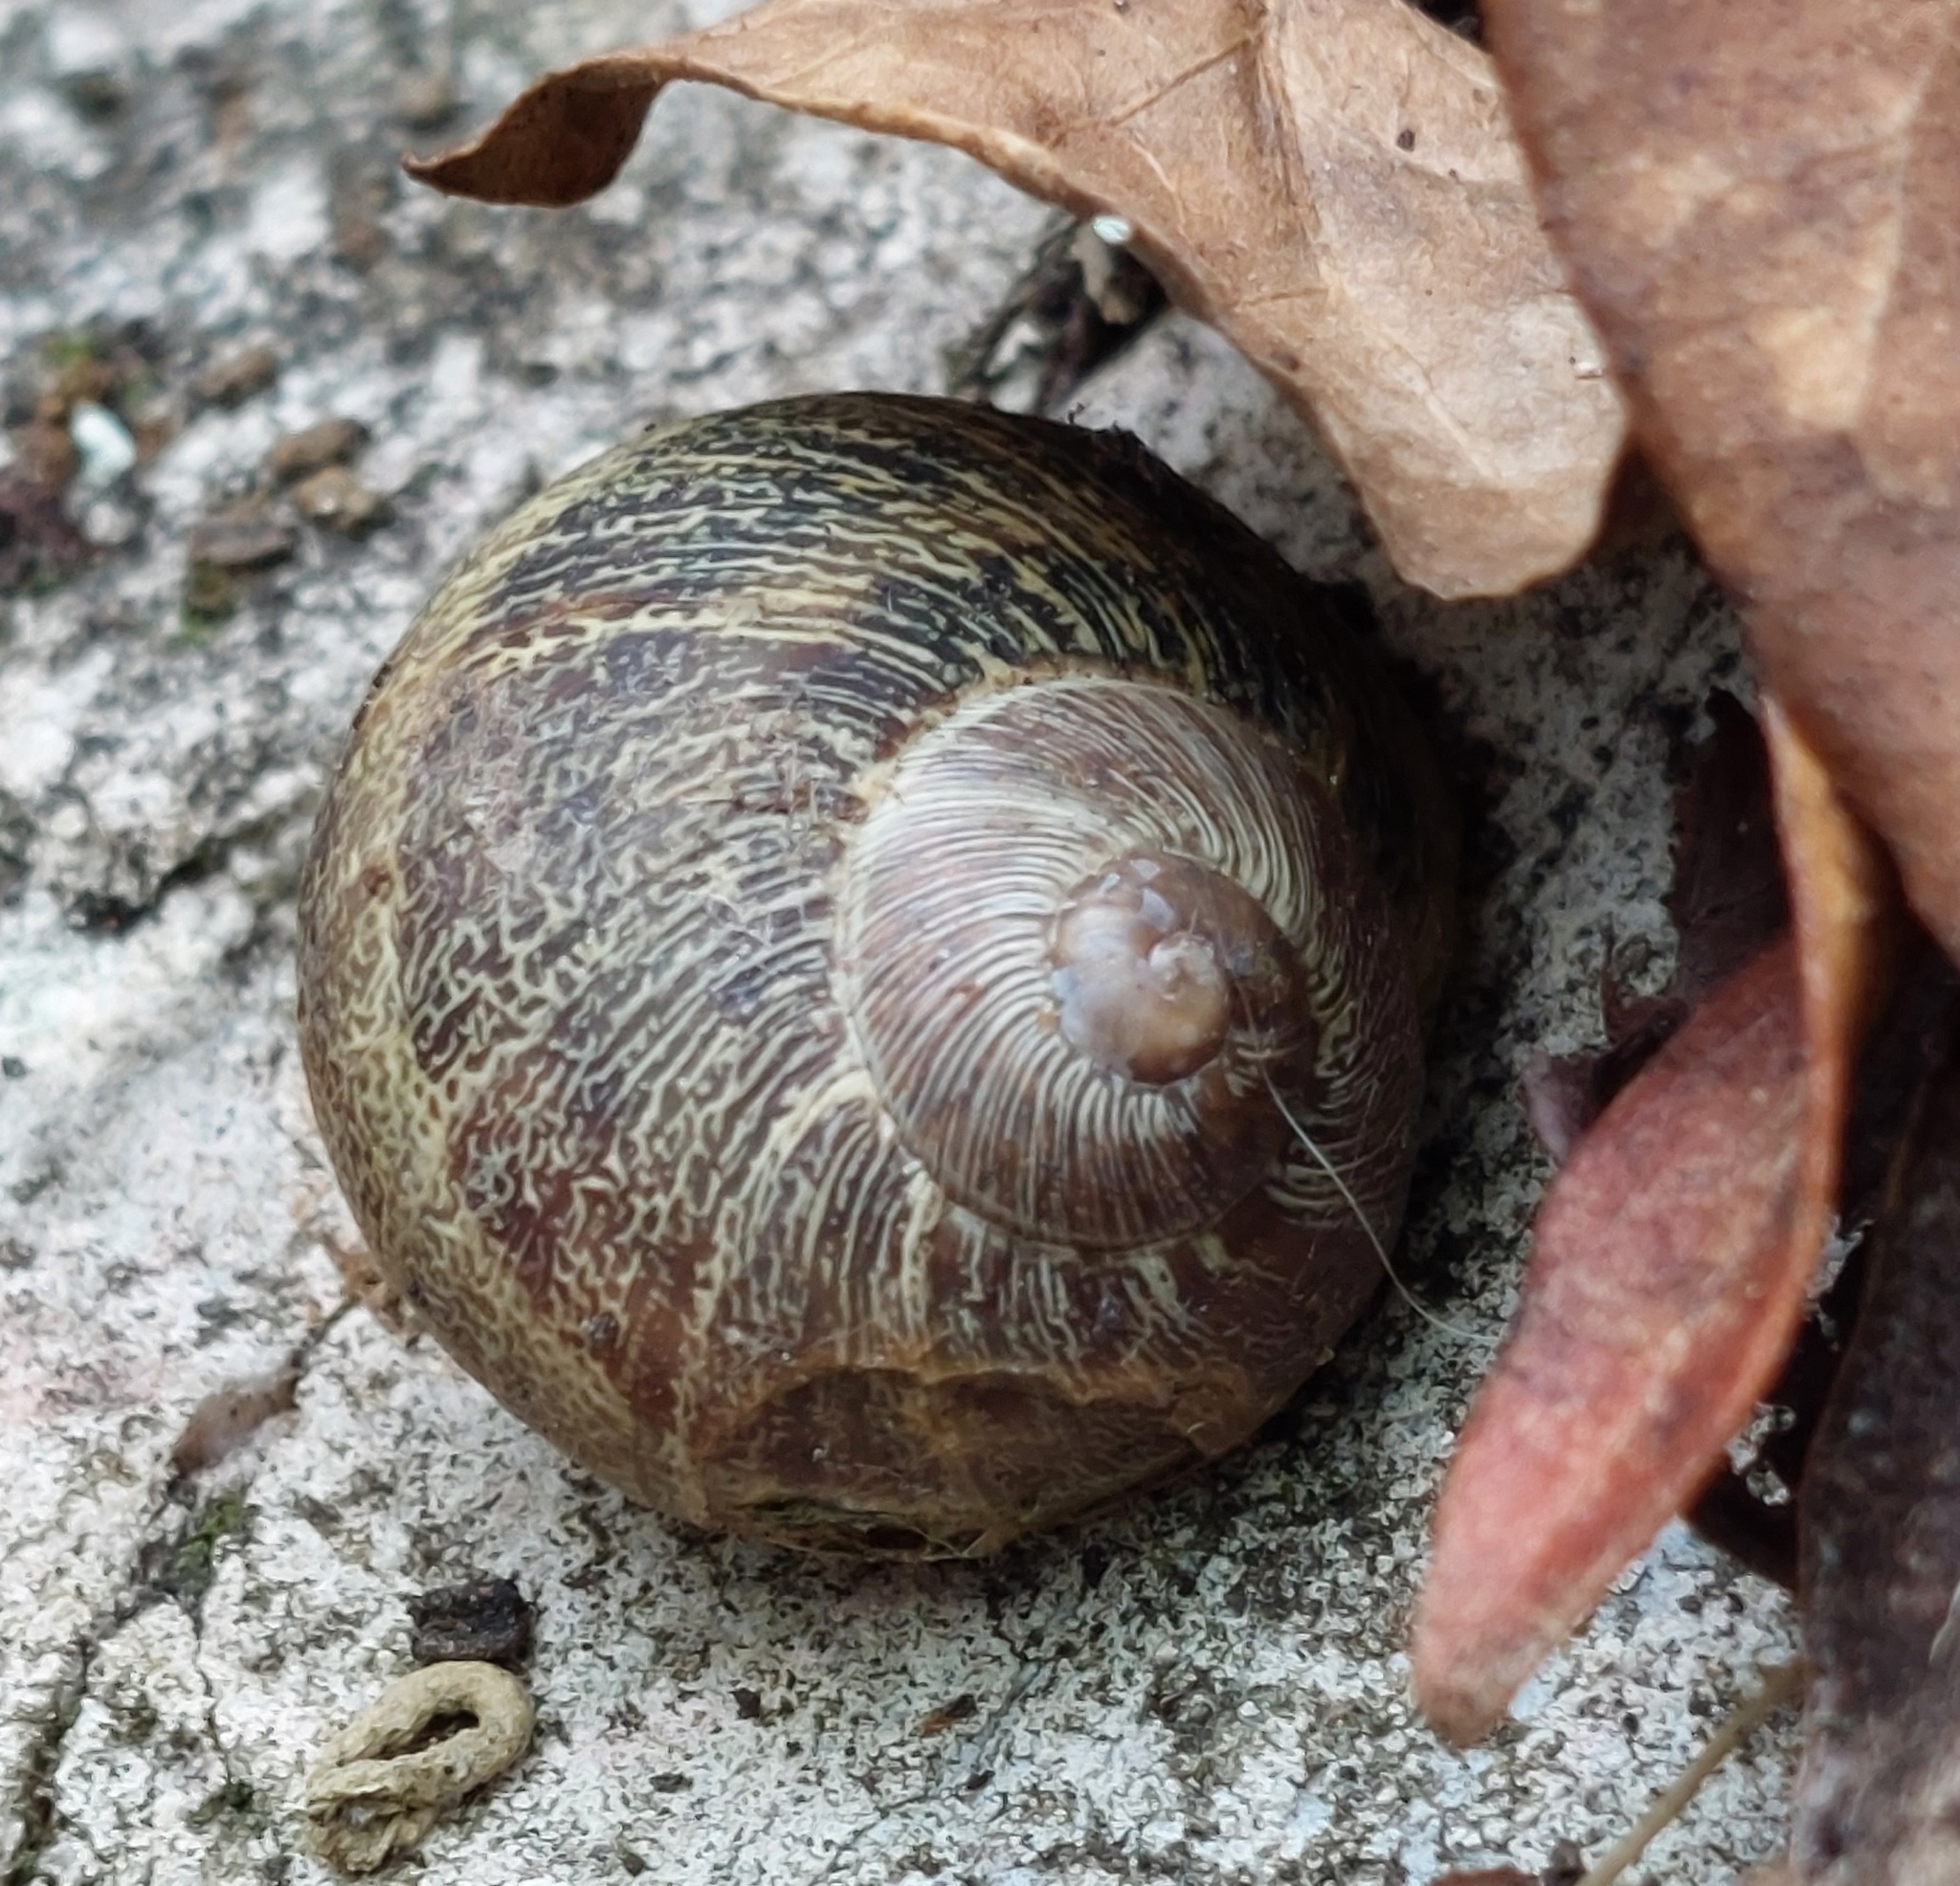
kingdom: Animalia
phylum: Mollusca
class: Gastropoda
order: Stylommatophora
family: Helicidae
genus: Cornu
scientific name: Cornu aspersum
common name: Brown garden snail
